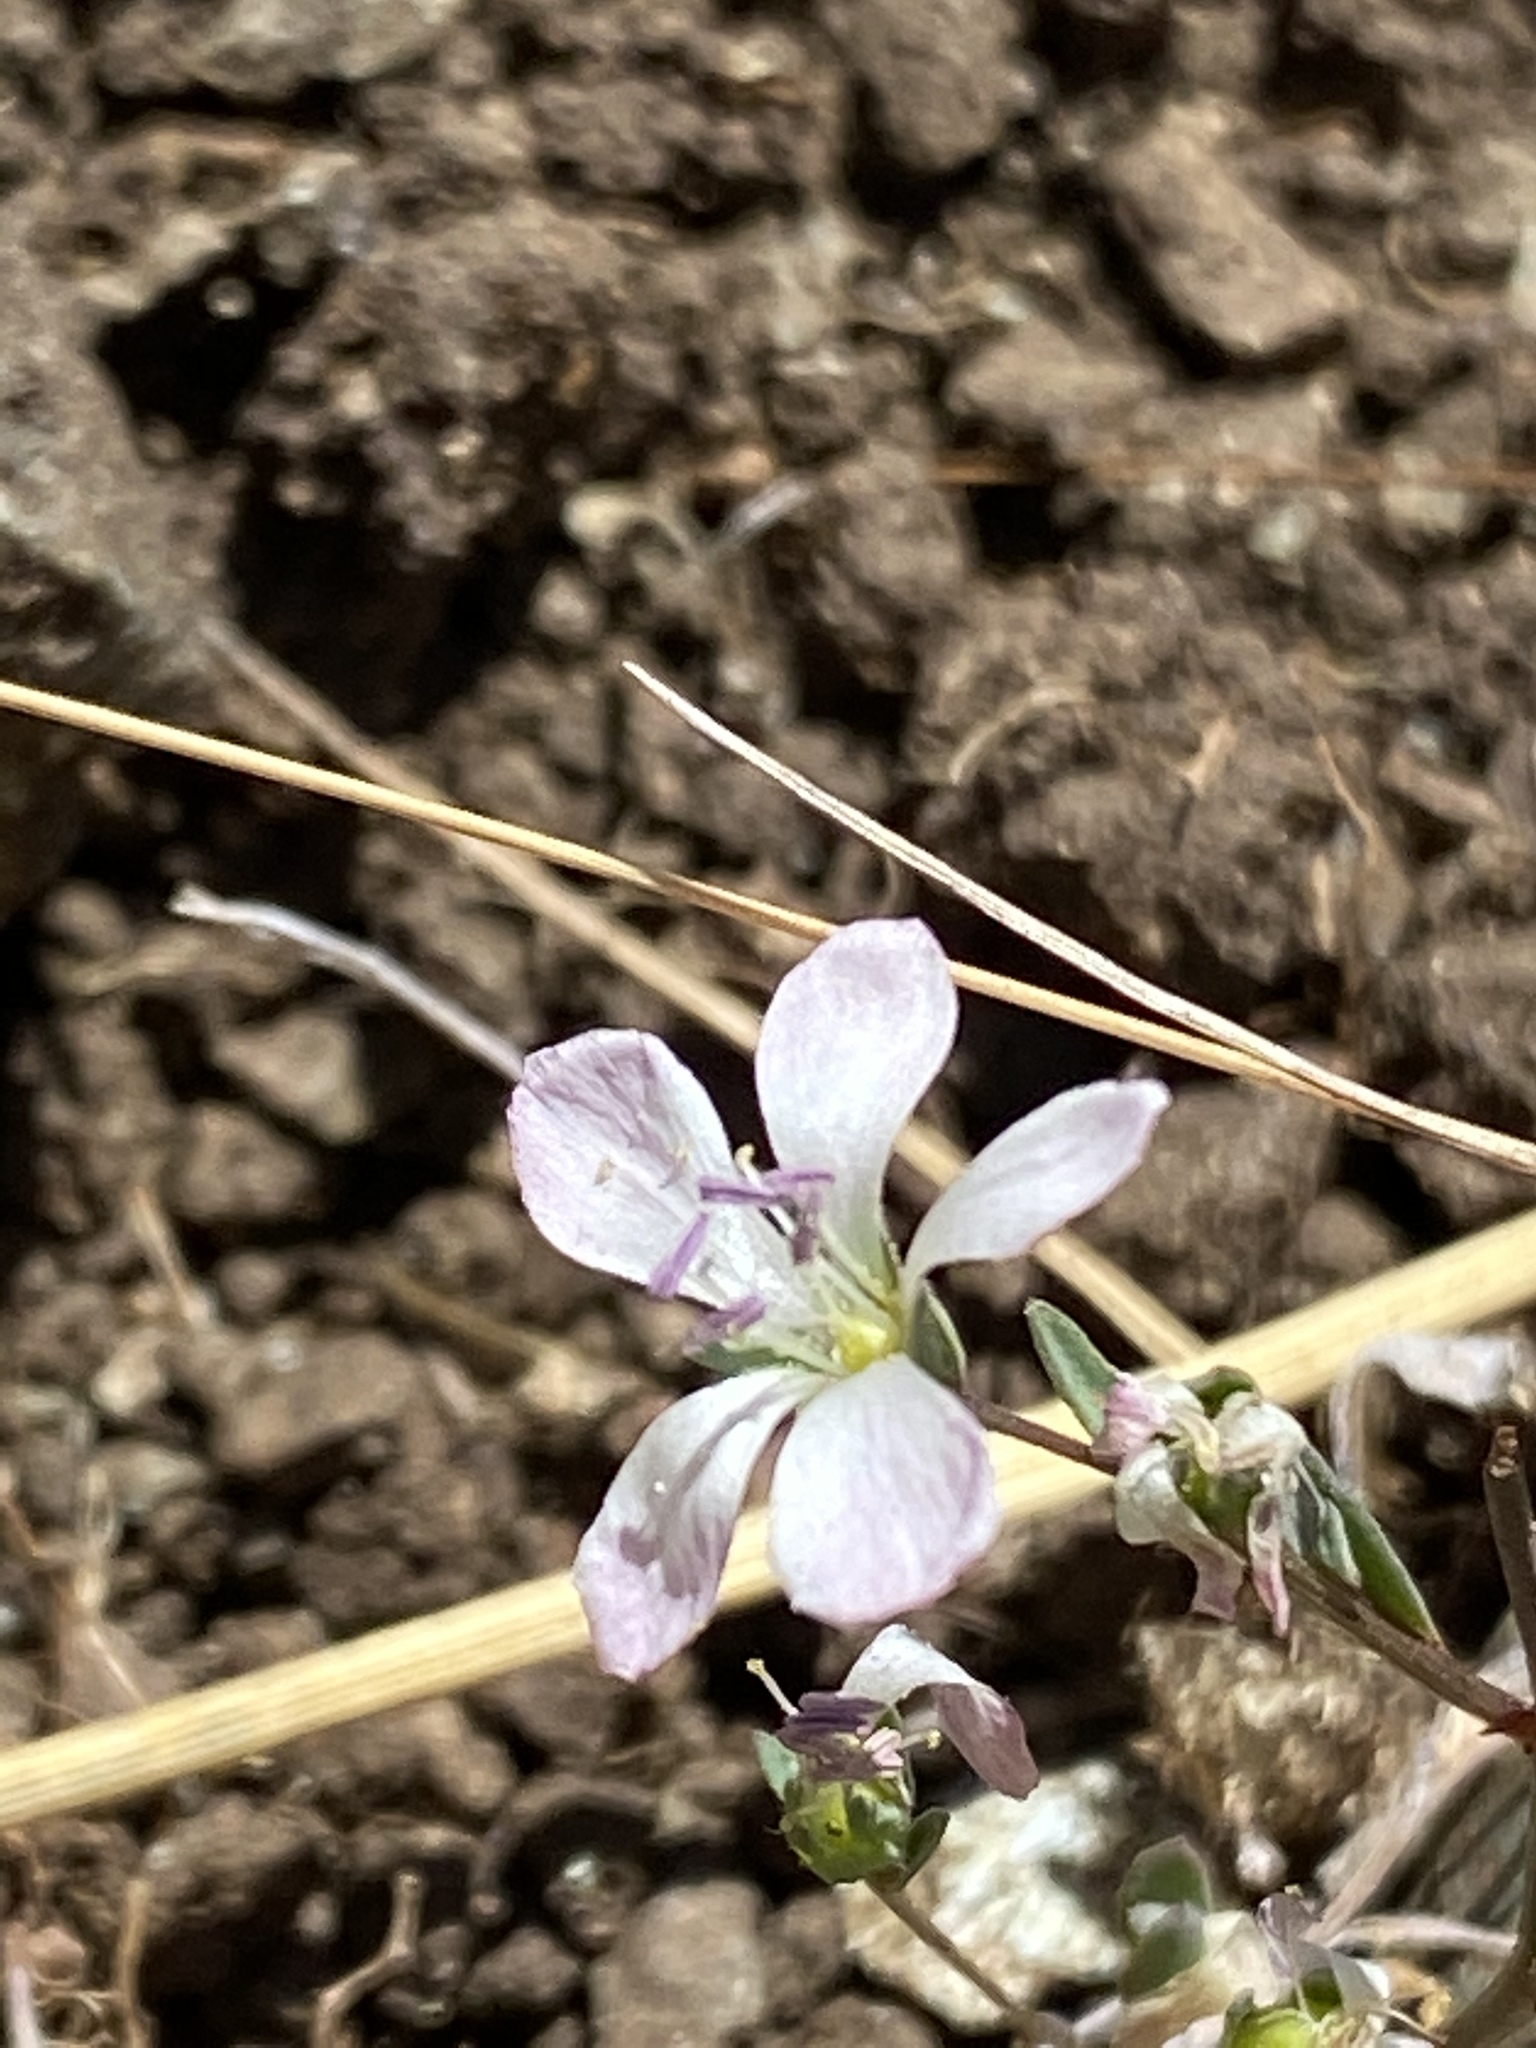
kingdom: Plantae
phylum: Tracheophyta
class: Magnoliopsida
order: Malpighiales
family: Linaceae
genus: Hesperolinon
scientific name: Hesperolinon congestum
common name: Marin dwarf-flax
